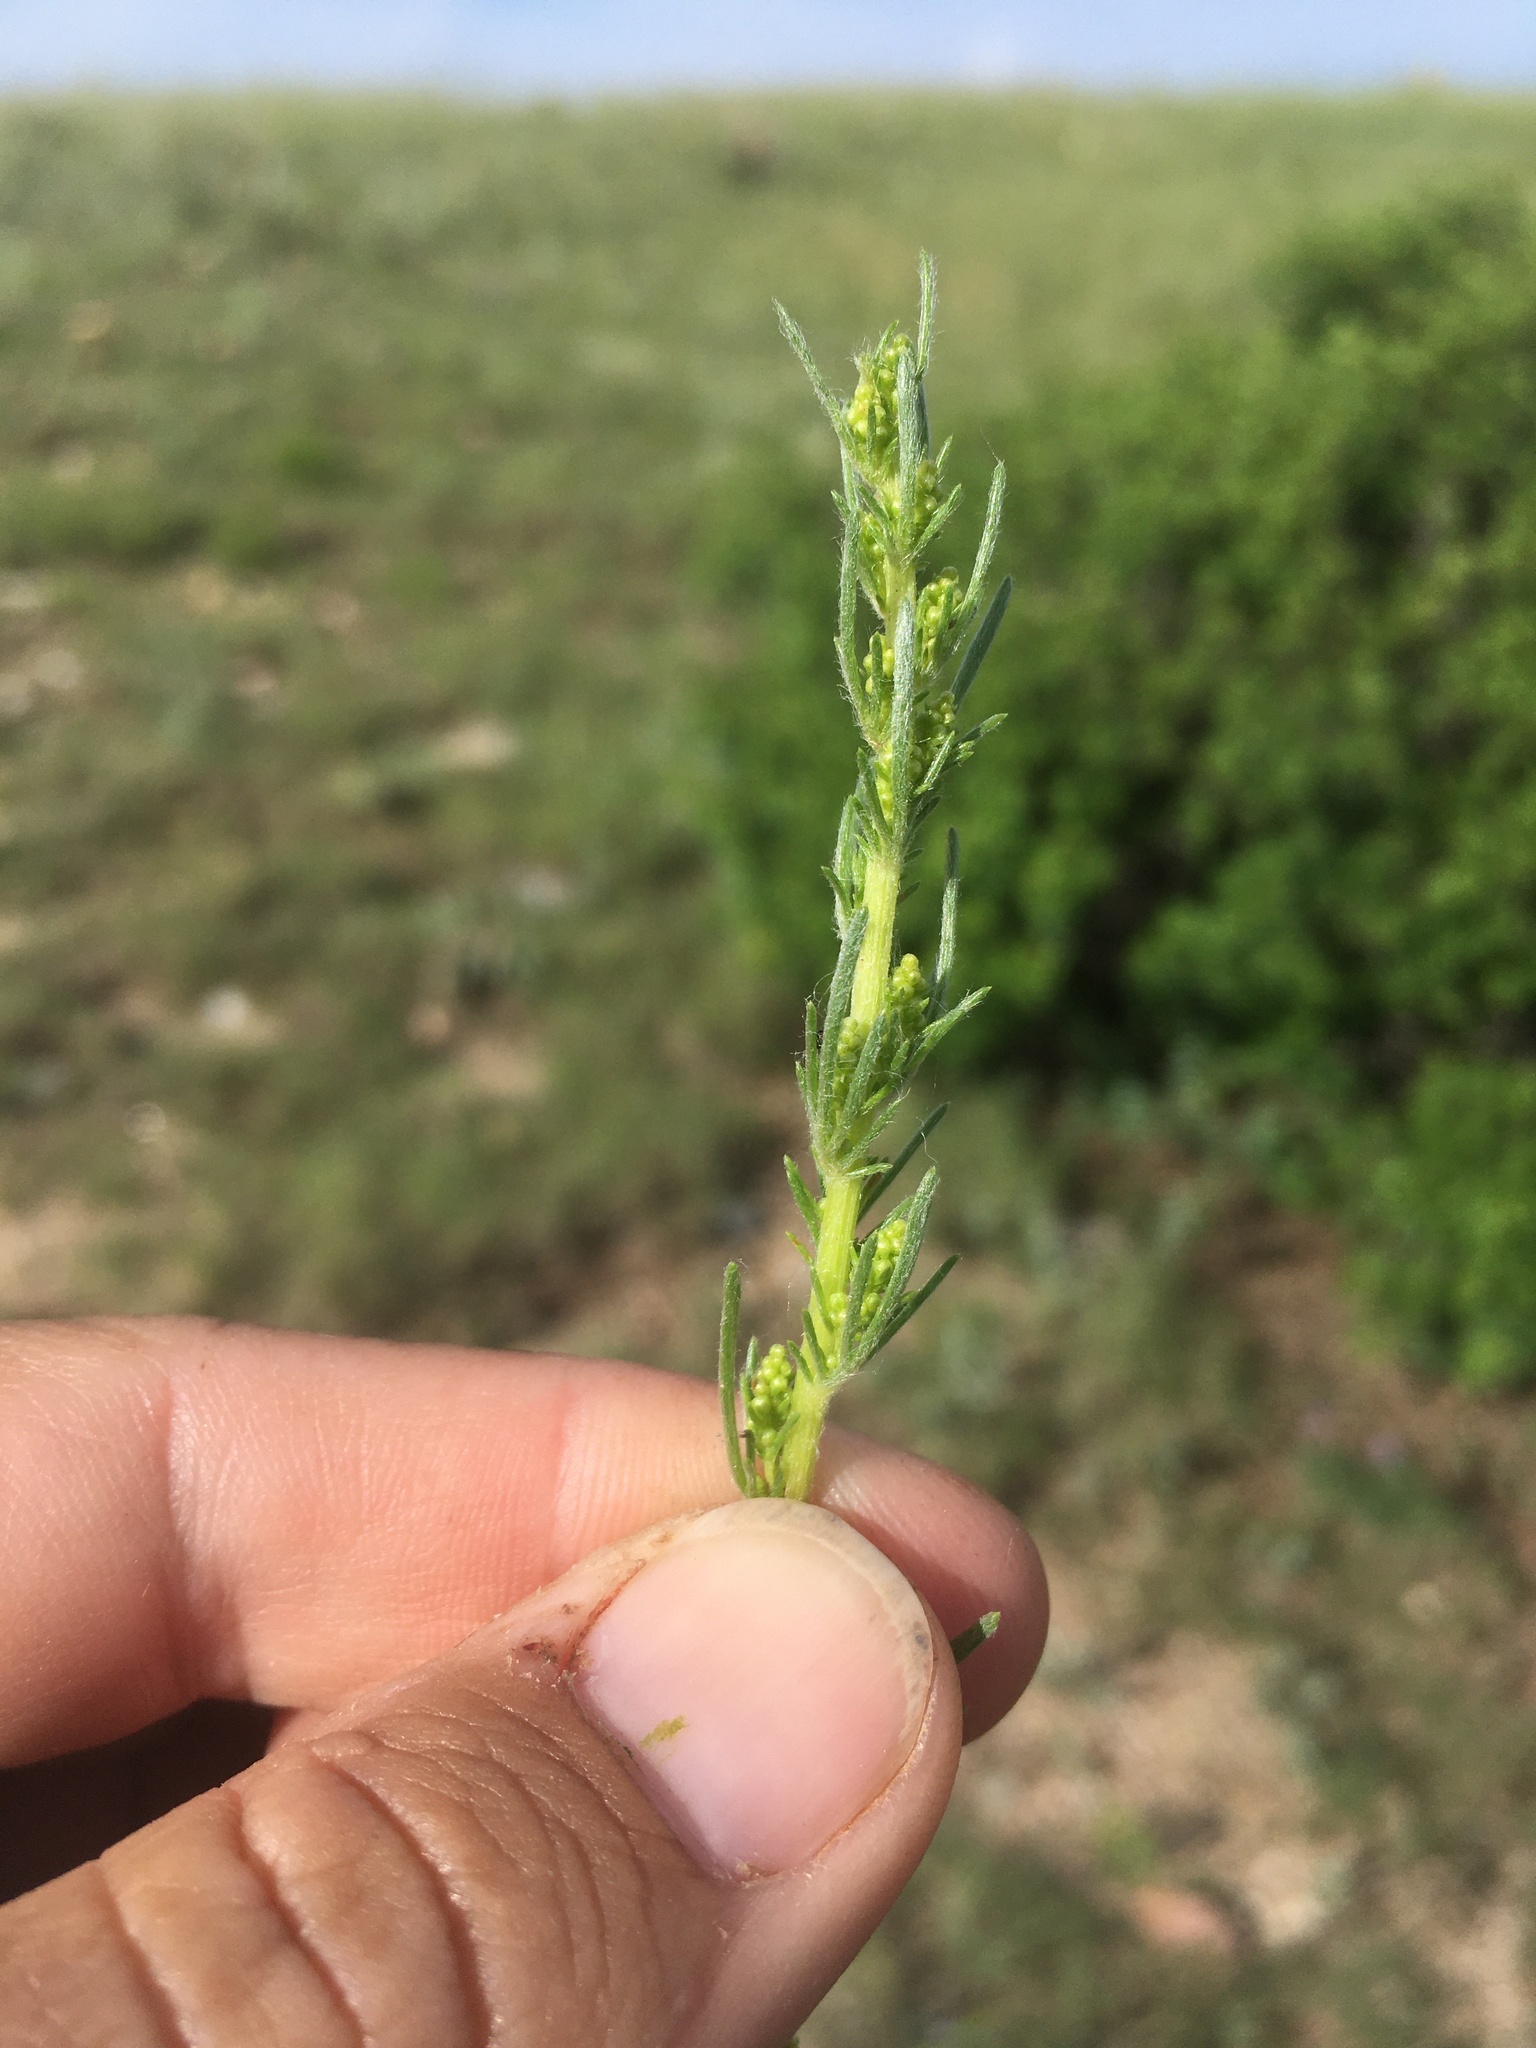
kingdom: Plantae
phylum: Tracheophyta
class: Magnoliopsida
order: Asterales
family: Asteraceae
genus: Artemisia
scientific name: Artemisia campestris
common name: Field wormwood
